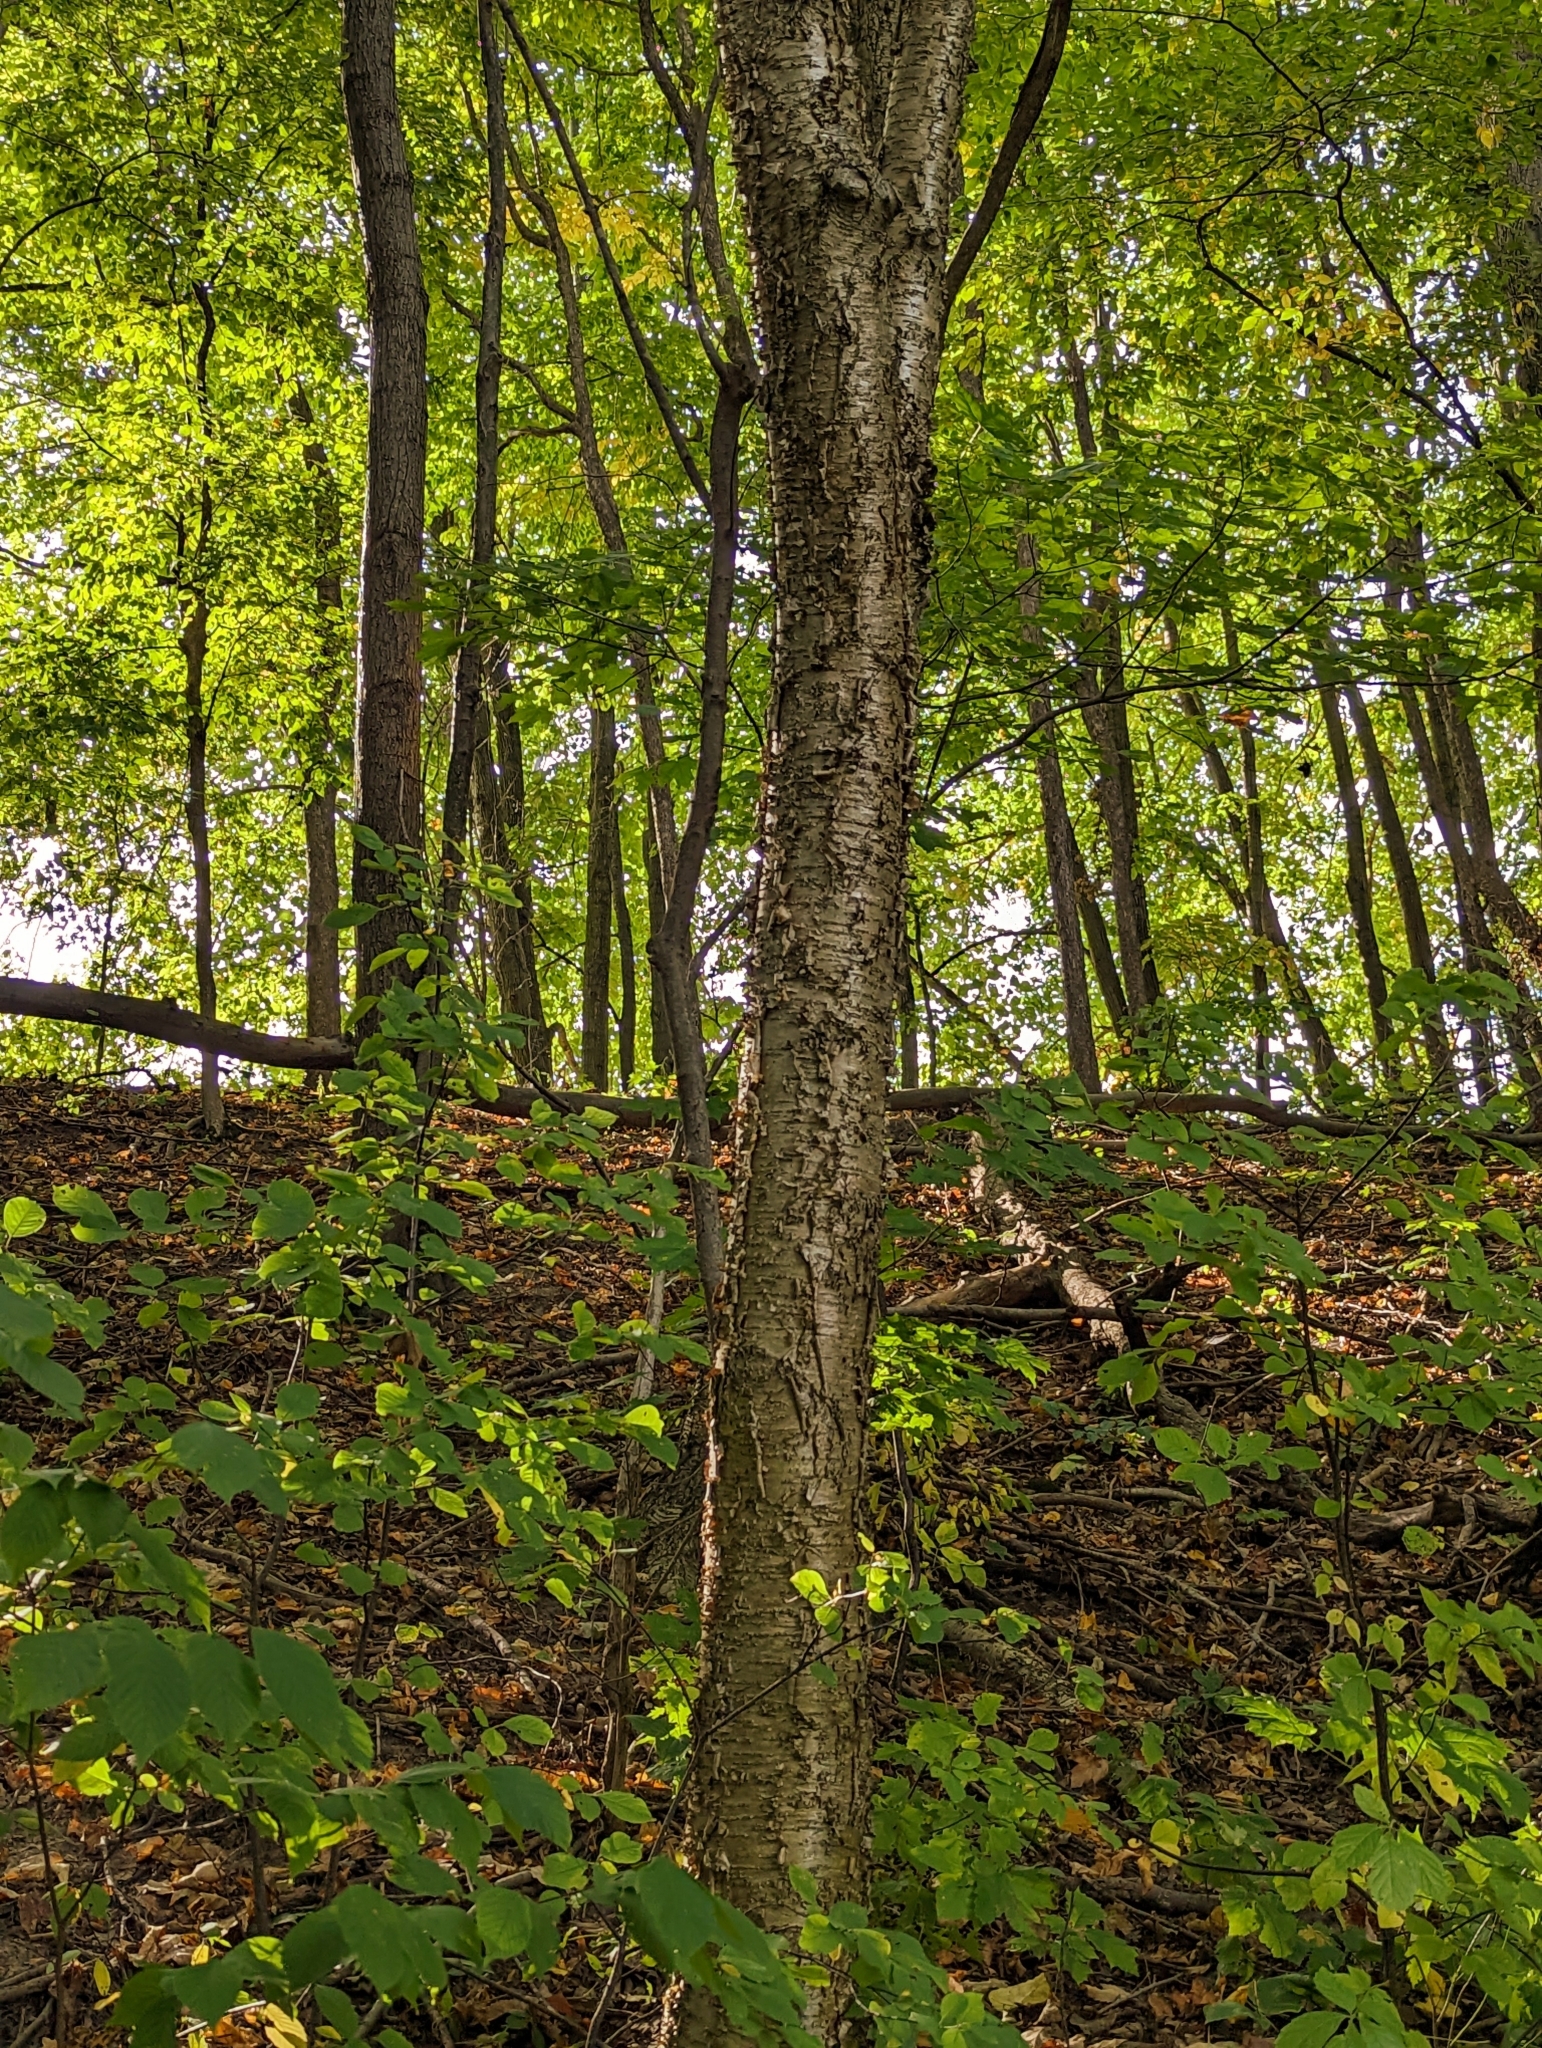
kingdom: Plantae
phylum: Tracheophyta
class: Magnoliopsida
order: Fagales
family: Betulaceae
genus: Betula
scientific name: Betula alleghaniensis
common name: Yellow birch
